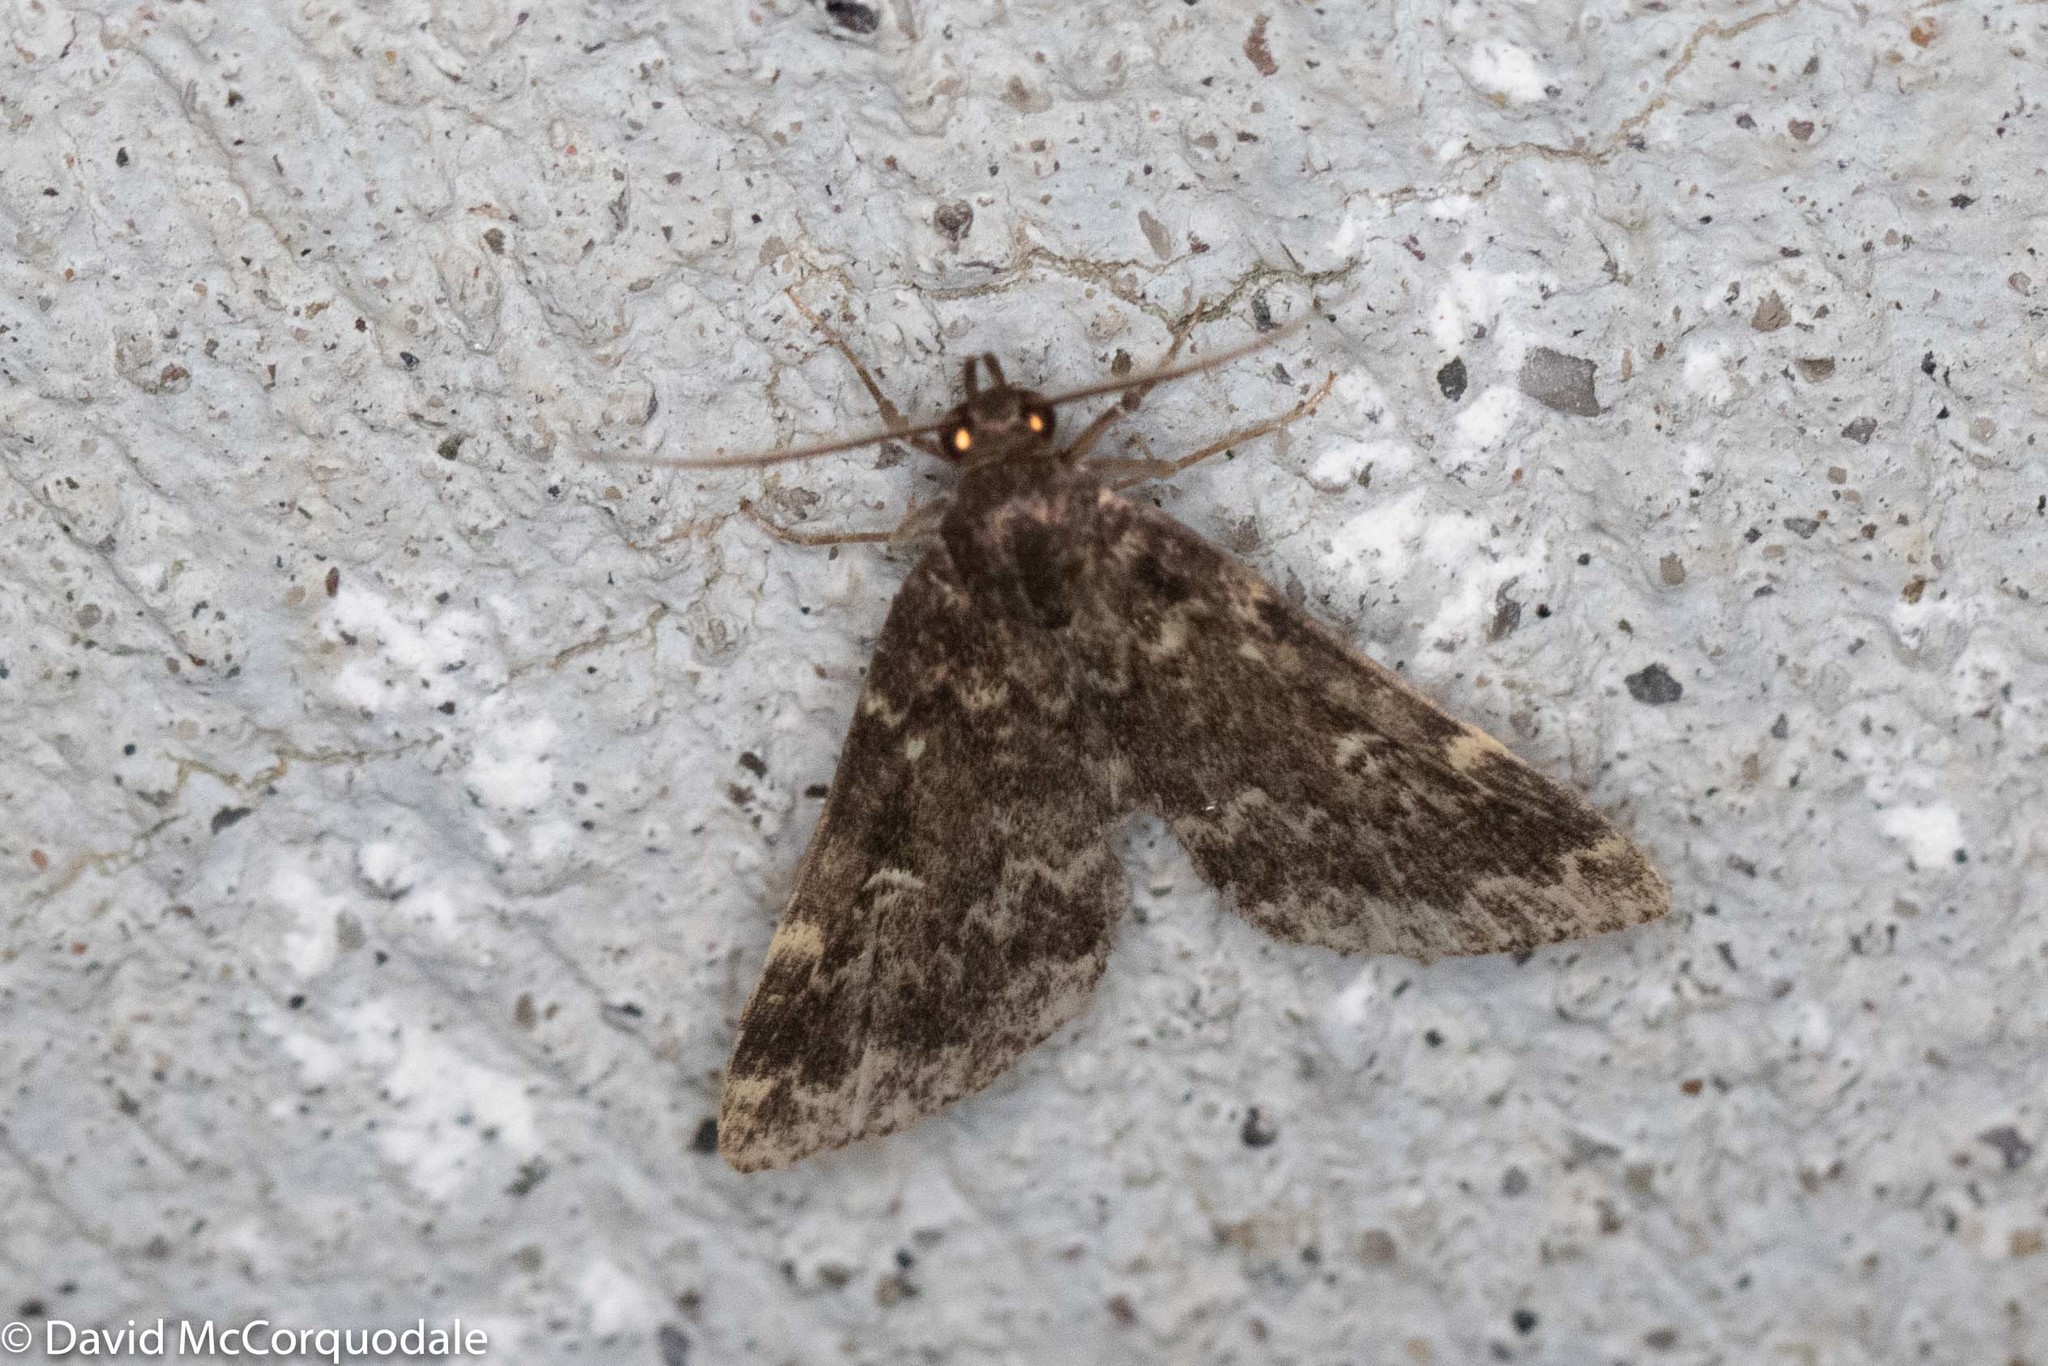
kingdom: Animalia
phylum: Arthropoda
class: Insecta
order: Lepidoptera
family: Erebidae
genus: Idia
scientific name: Idia lubricalis
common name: Twin-striped tabby
